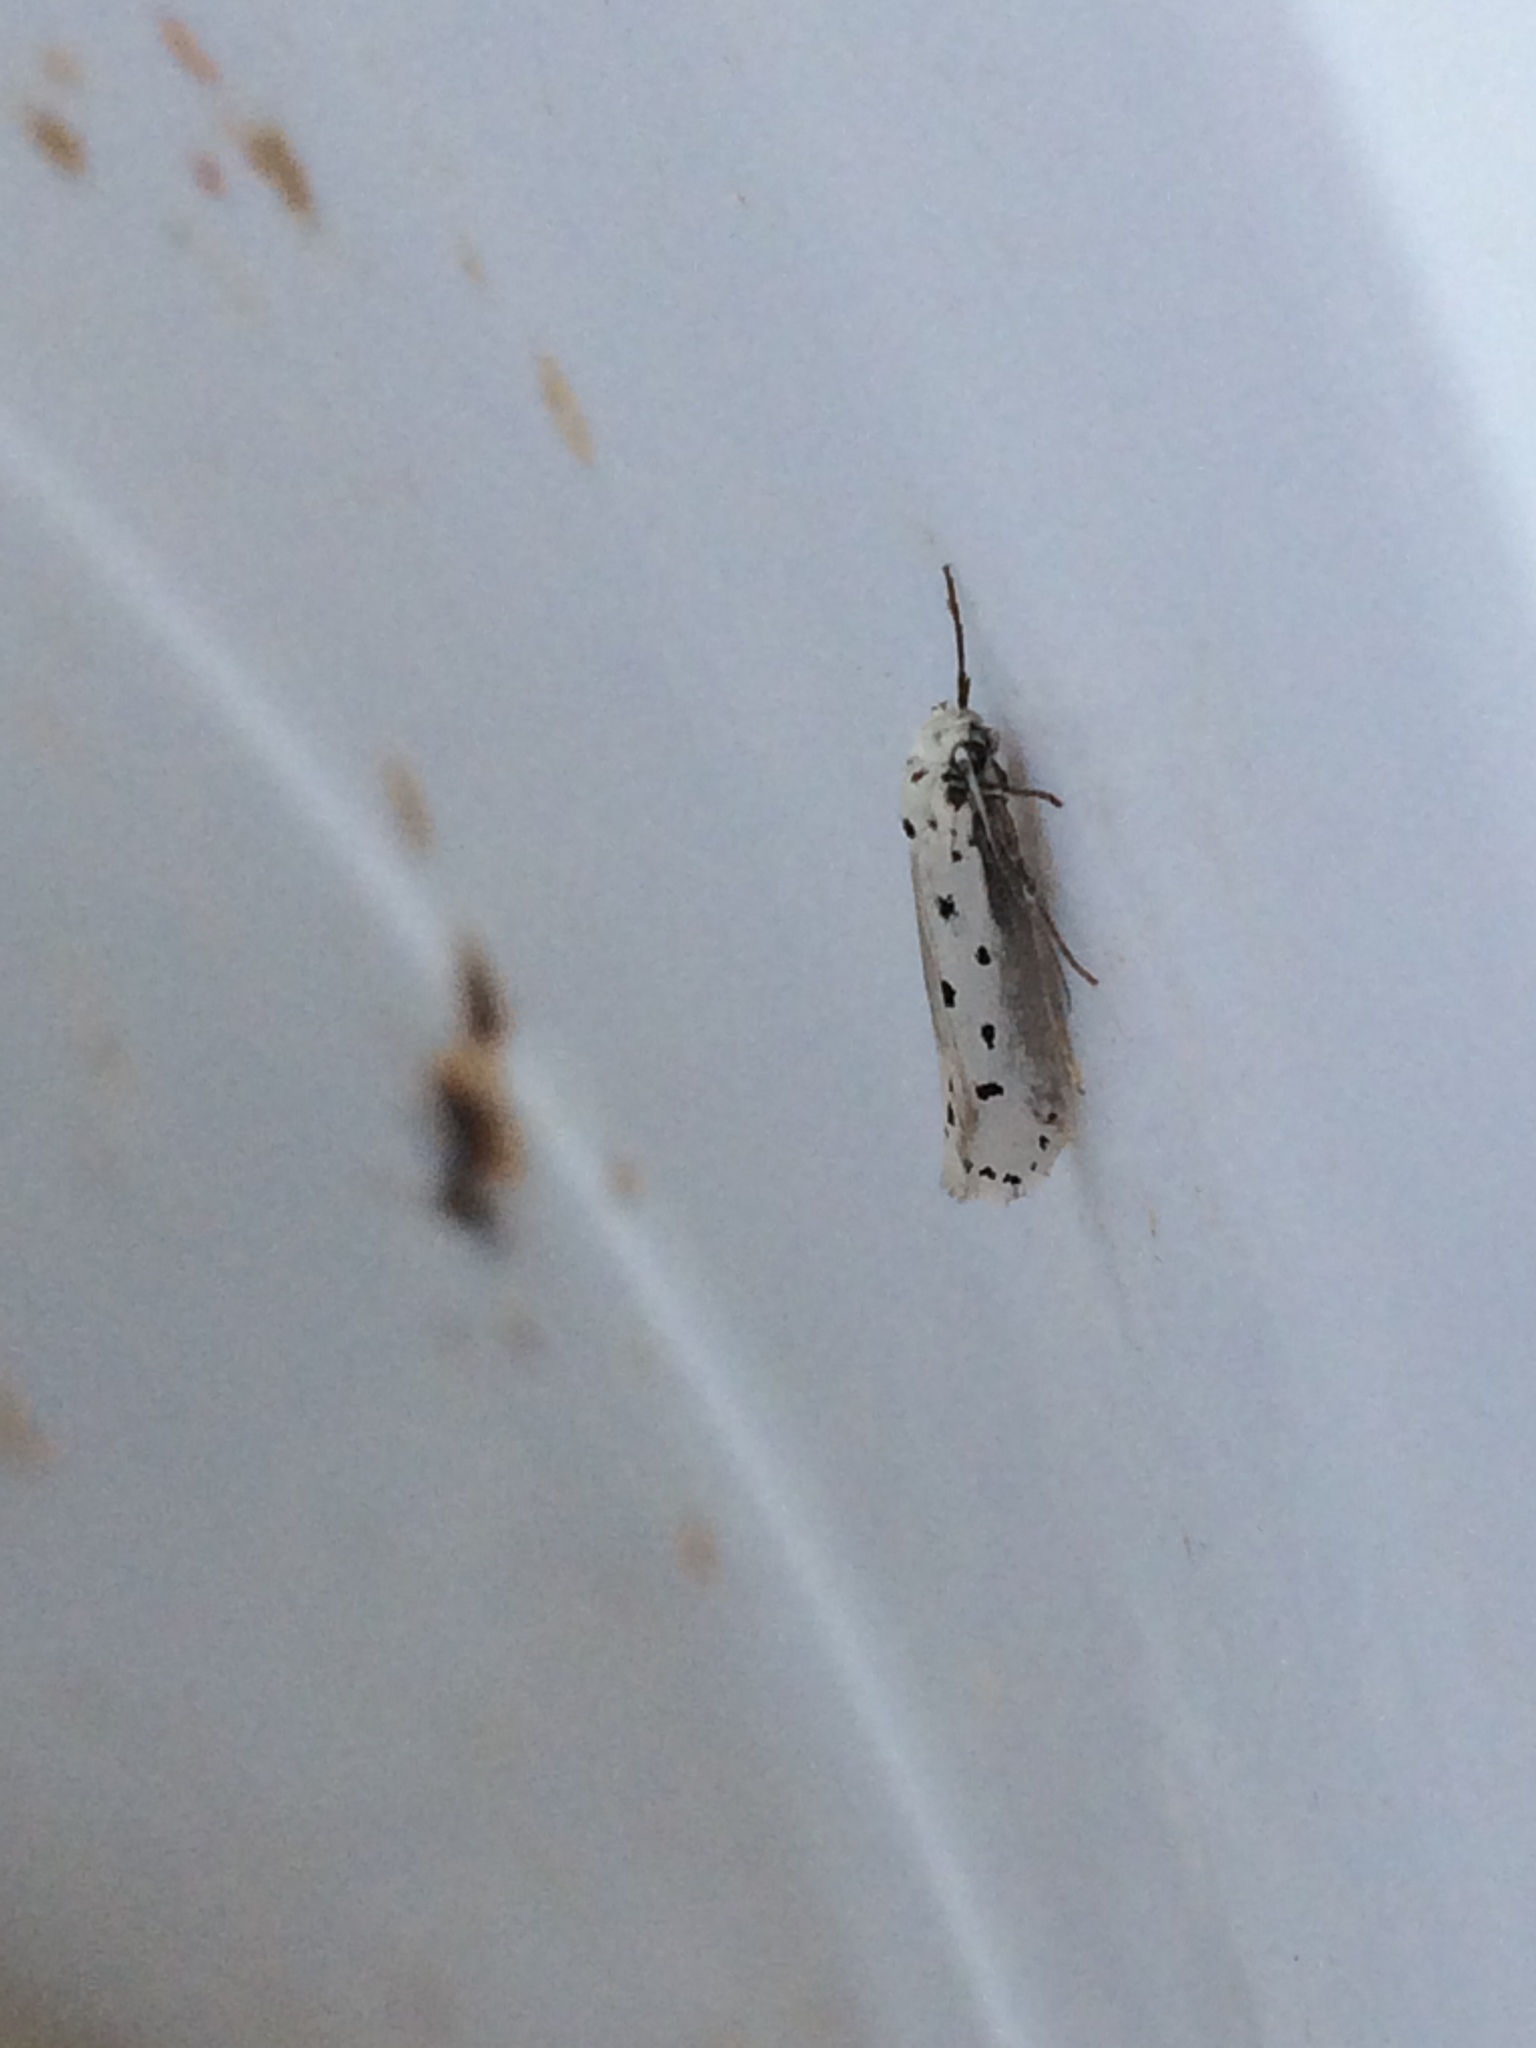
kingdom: Animalia
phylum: Arthropoda
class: Insecta
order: Lepidoptera
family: Ethmiidae
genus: Ethmia
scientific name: Ethmia terminella
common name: Five-spot ermel
